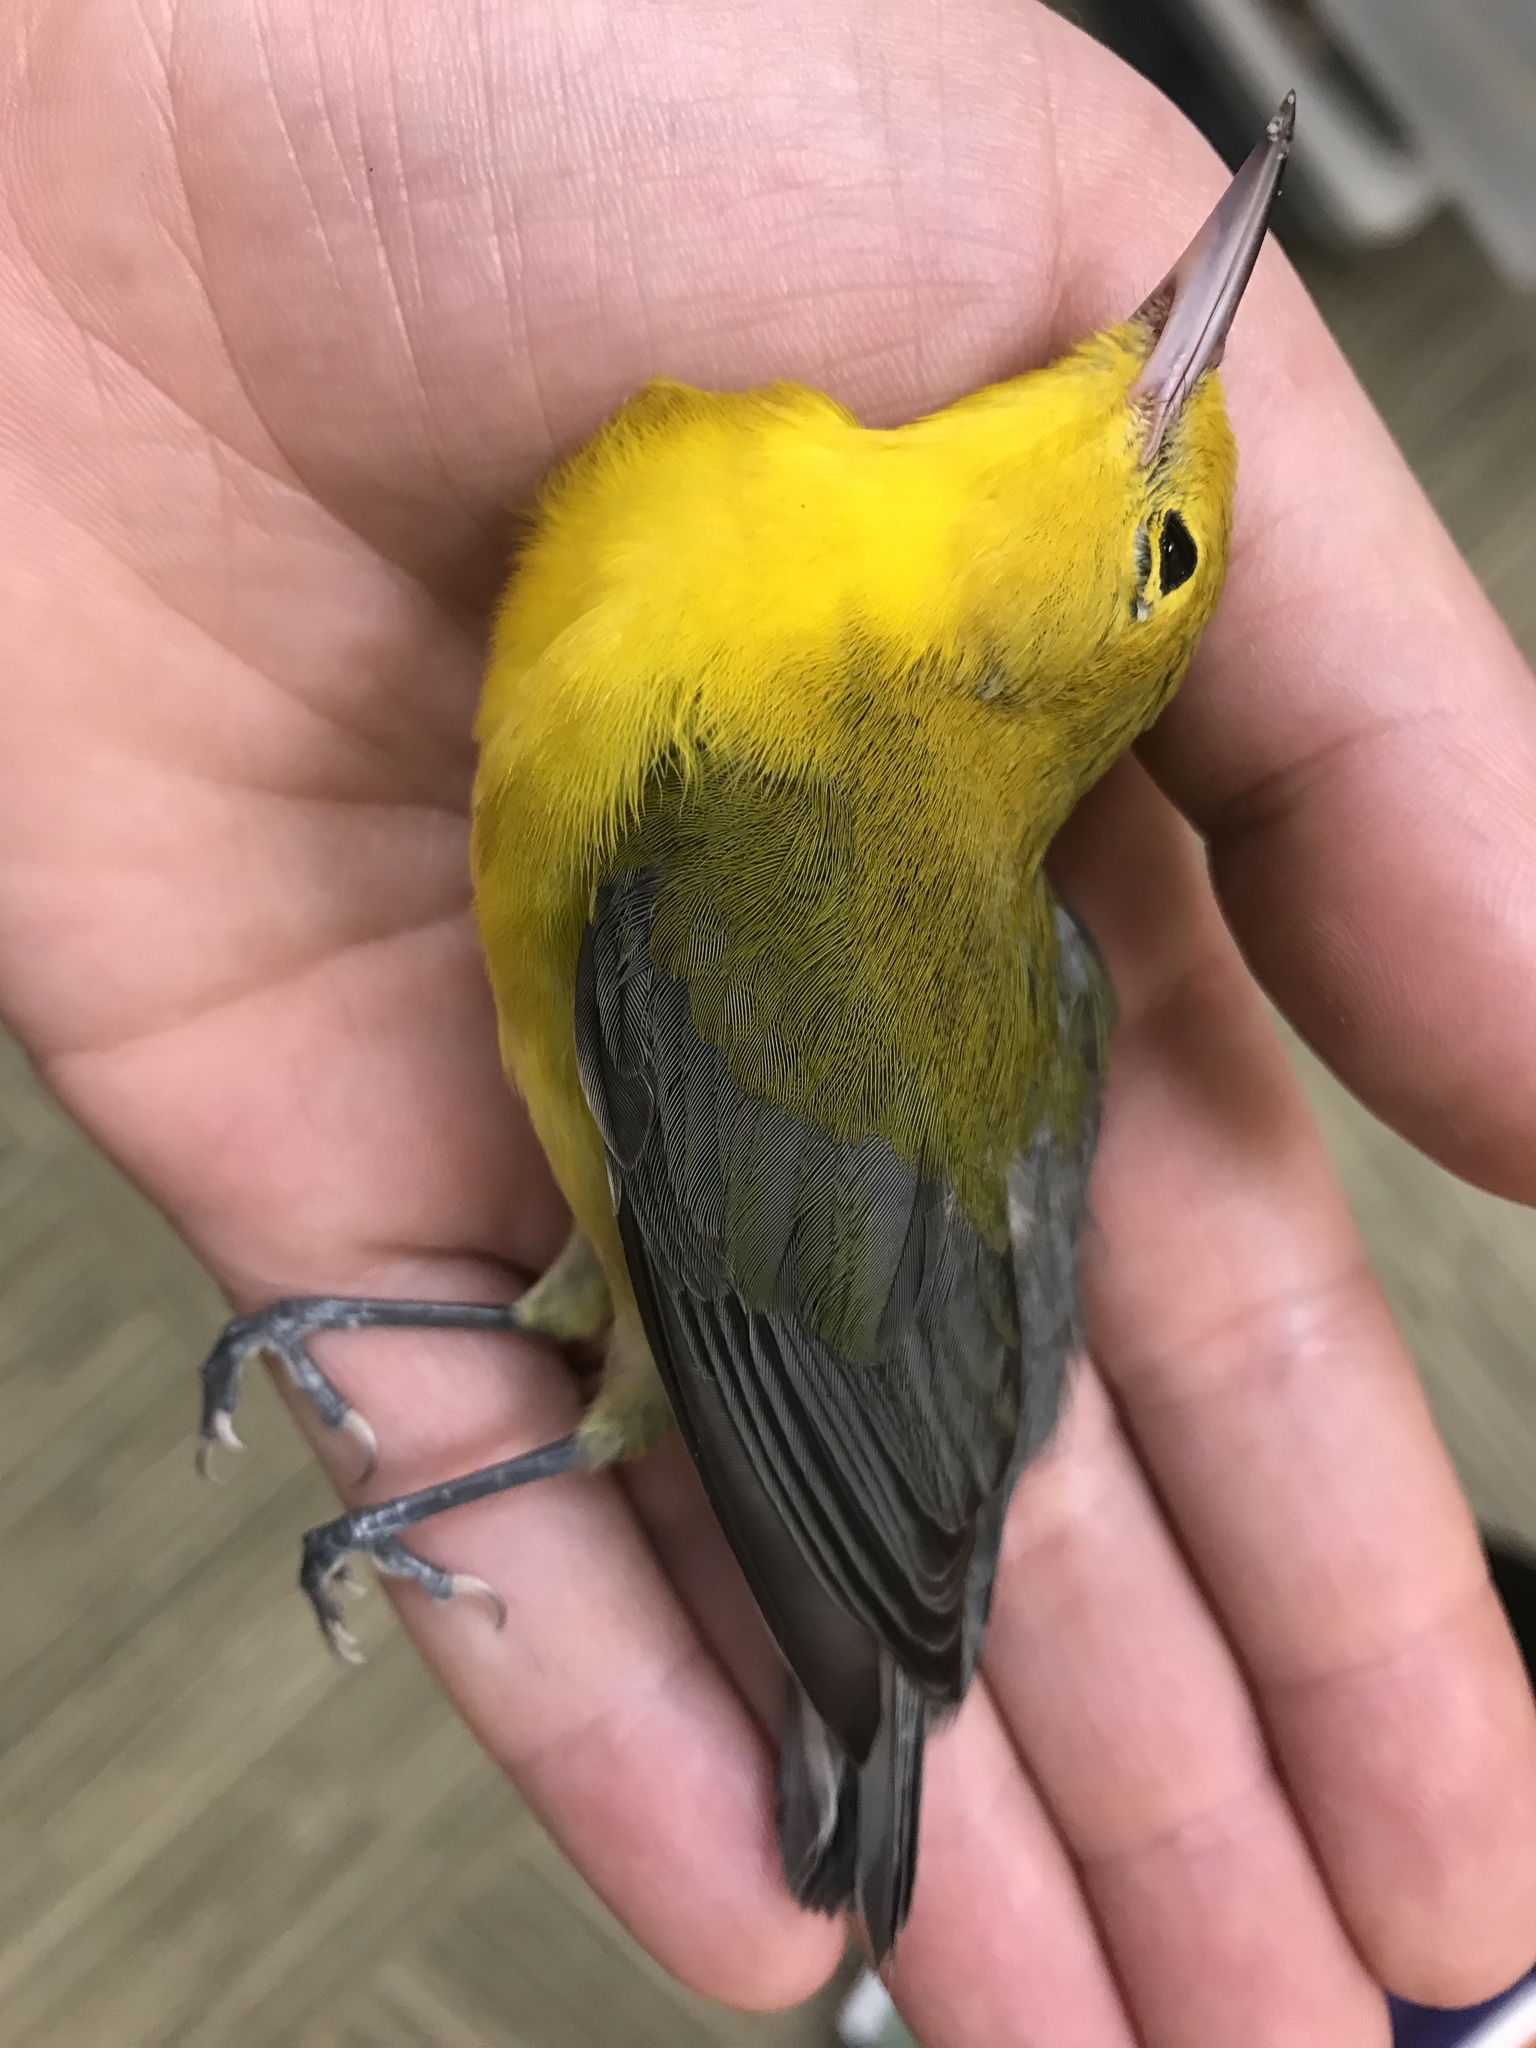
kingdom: Animalia
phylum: Chordata
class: Aves
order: Passeriformes
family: Parulidae
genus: Protonotaria
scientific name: Protonotaria citrea
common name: Prothonotary warbler
